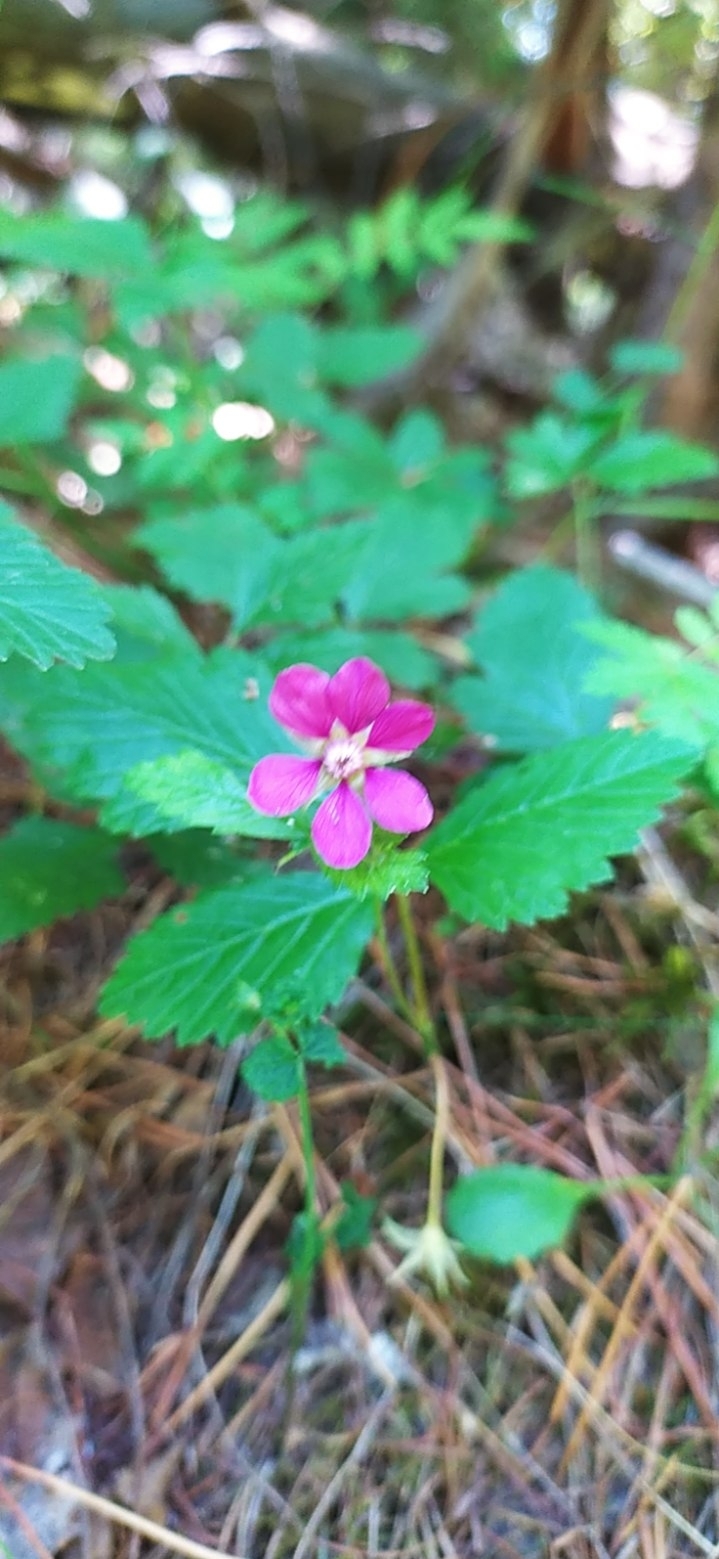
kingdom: Plantae
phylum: Tracheophyta
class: Magnoliopsida
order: Rosales
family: Rosaceae
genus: Rubus
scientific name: Rubus arcticus
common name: Arctic bramble
